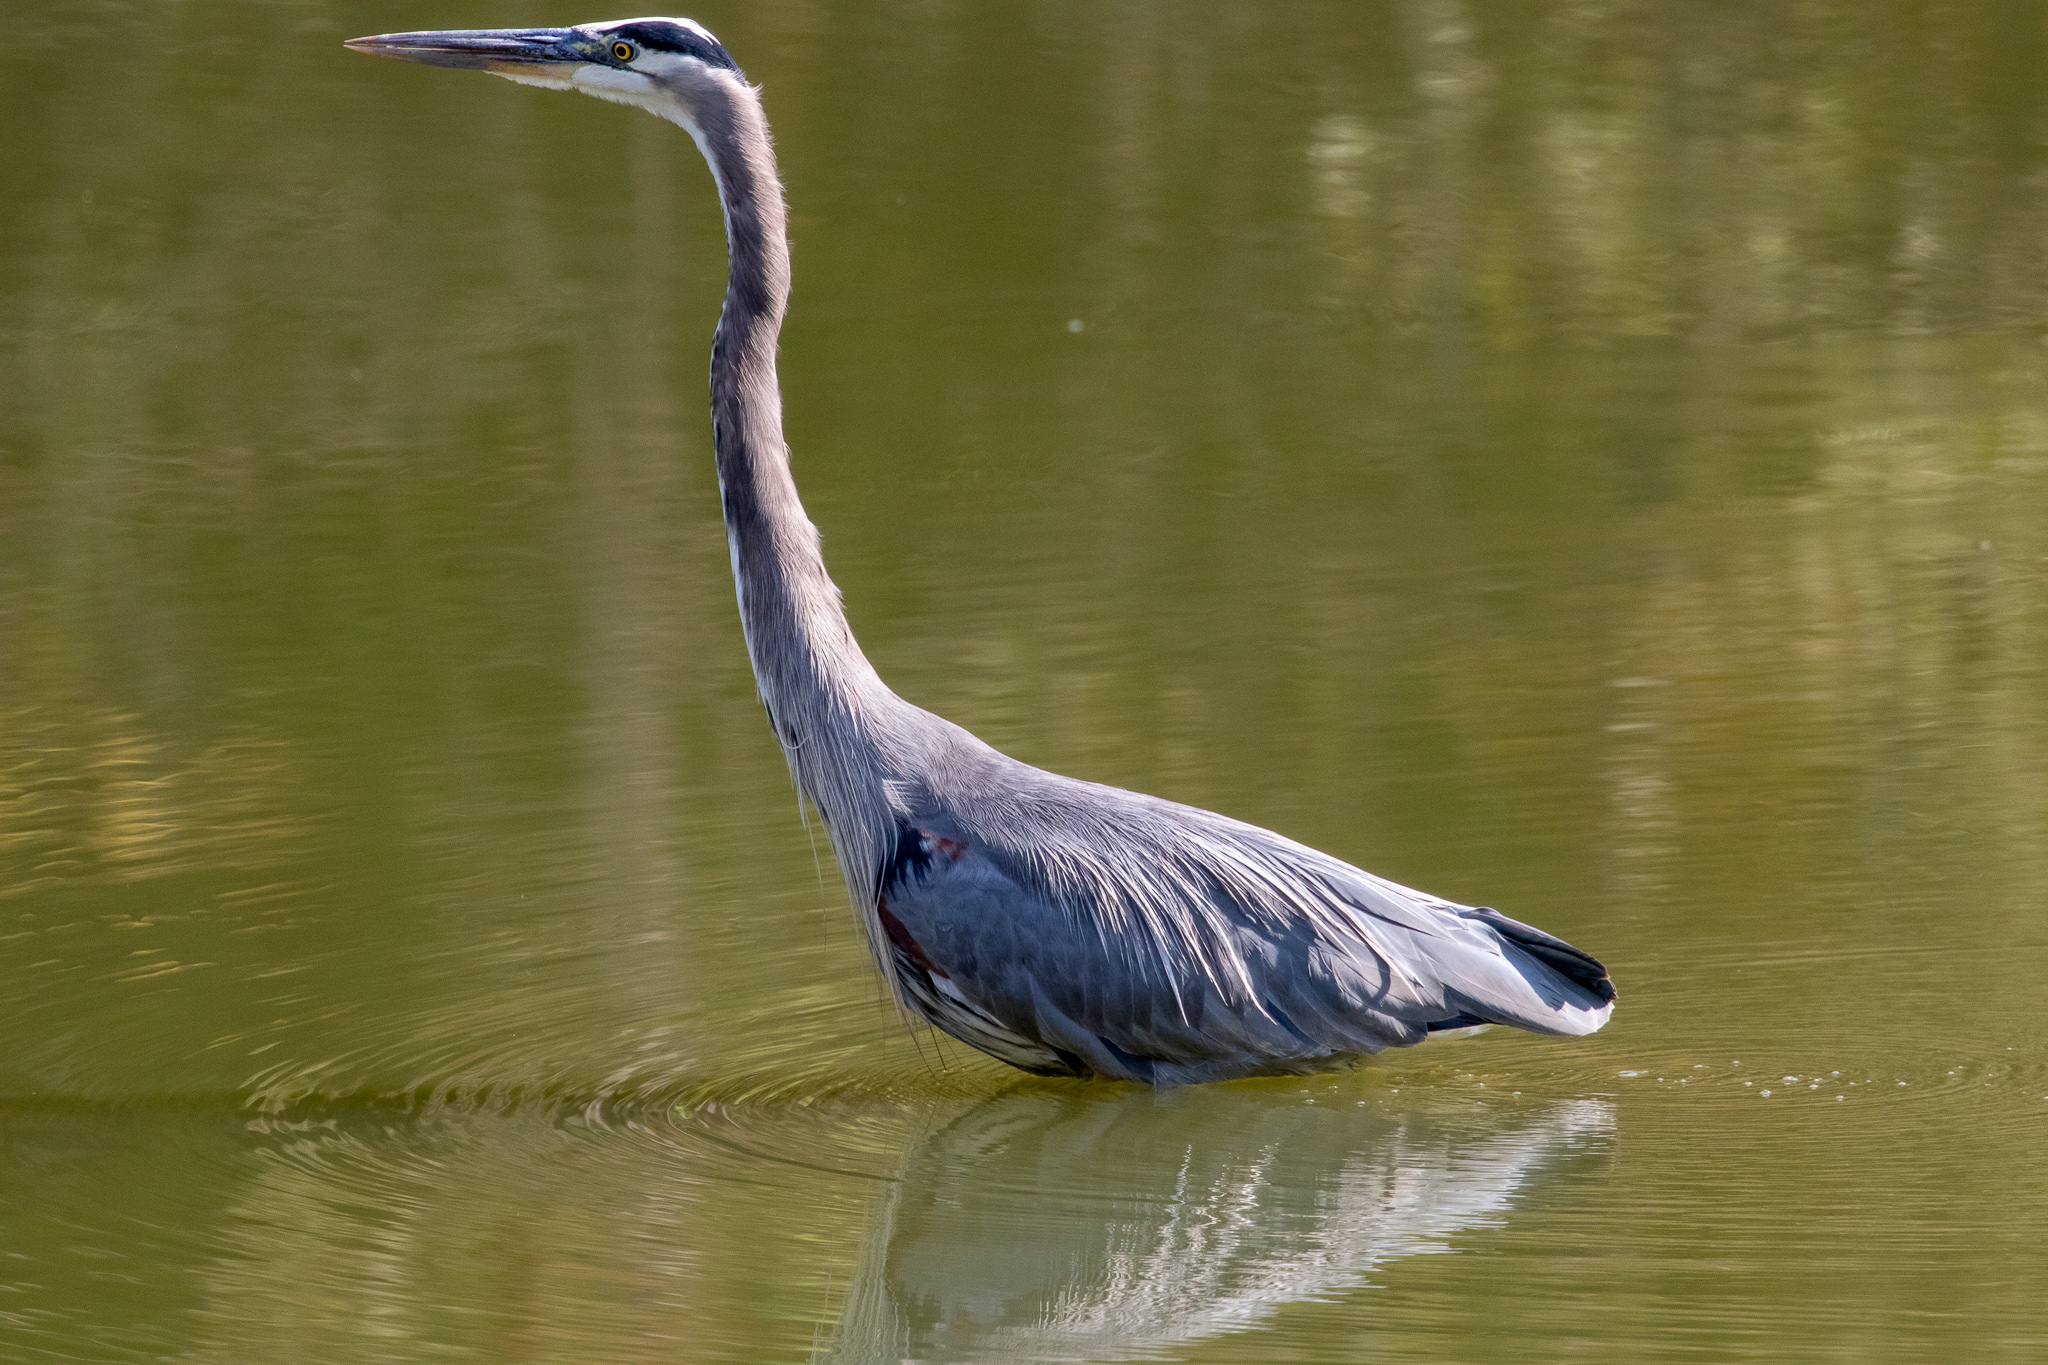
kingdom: Animalia
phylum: Chordata
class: Aves
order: Pelecaniformes
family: Ardeidae
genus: Ardea
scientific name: Ardea herodias
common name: Great blue heron
